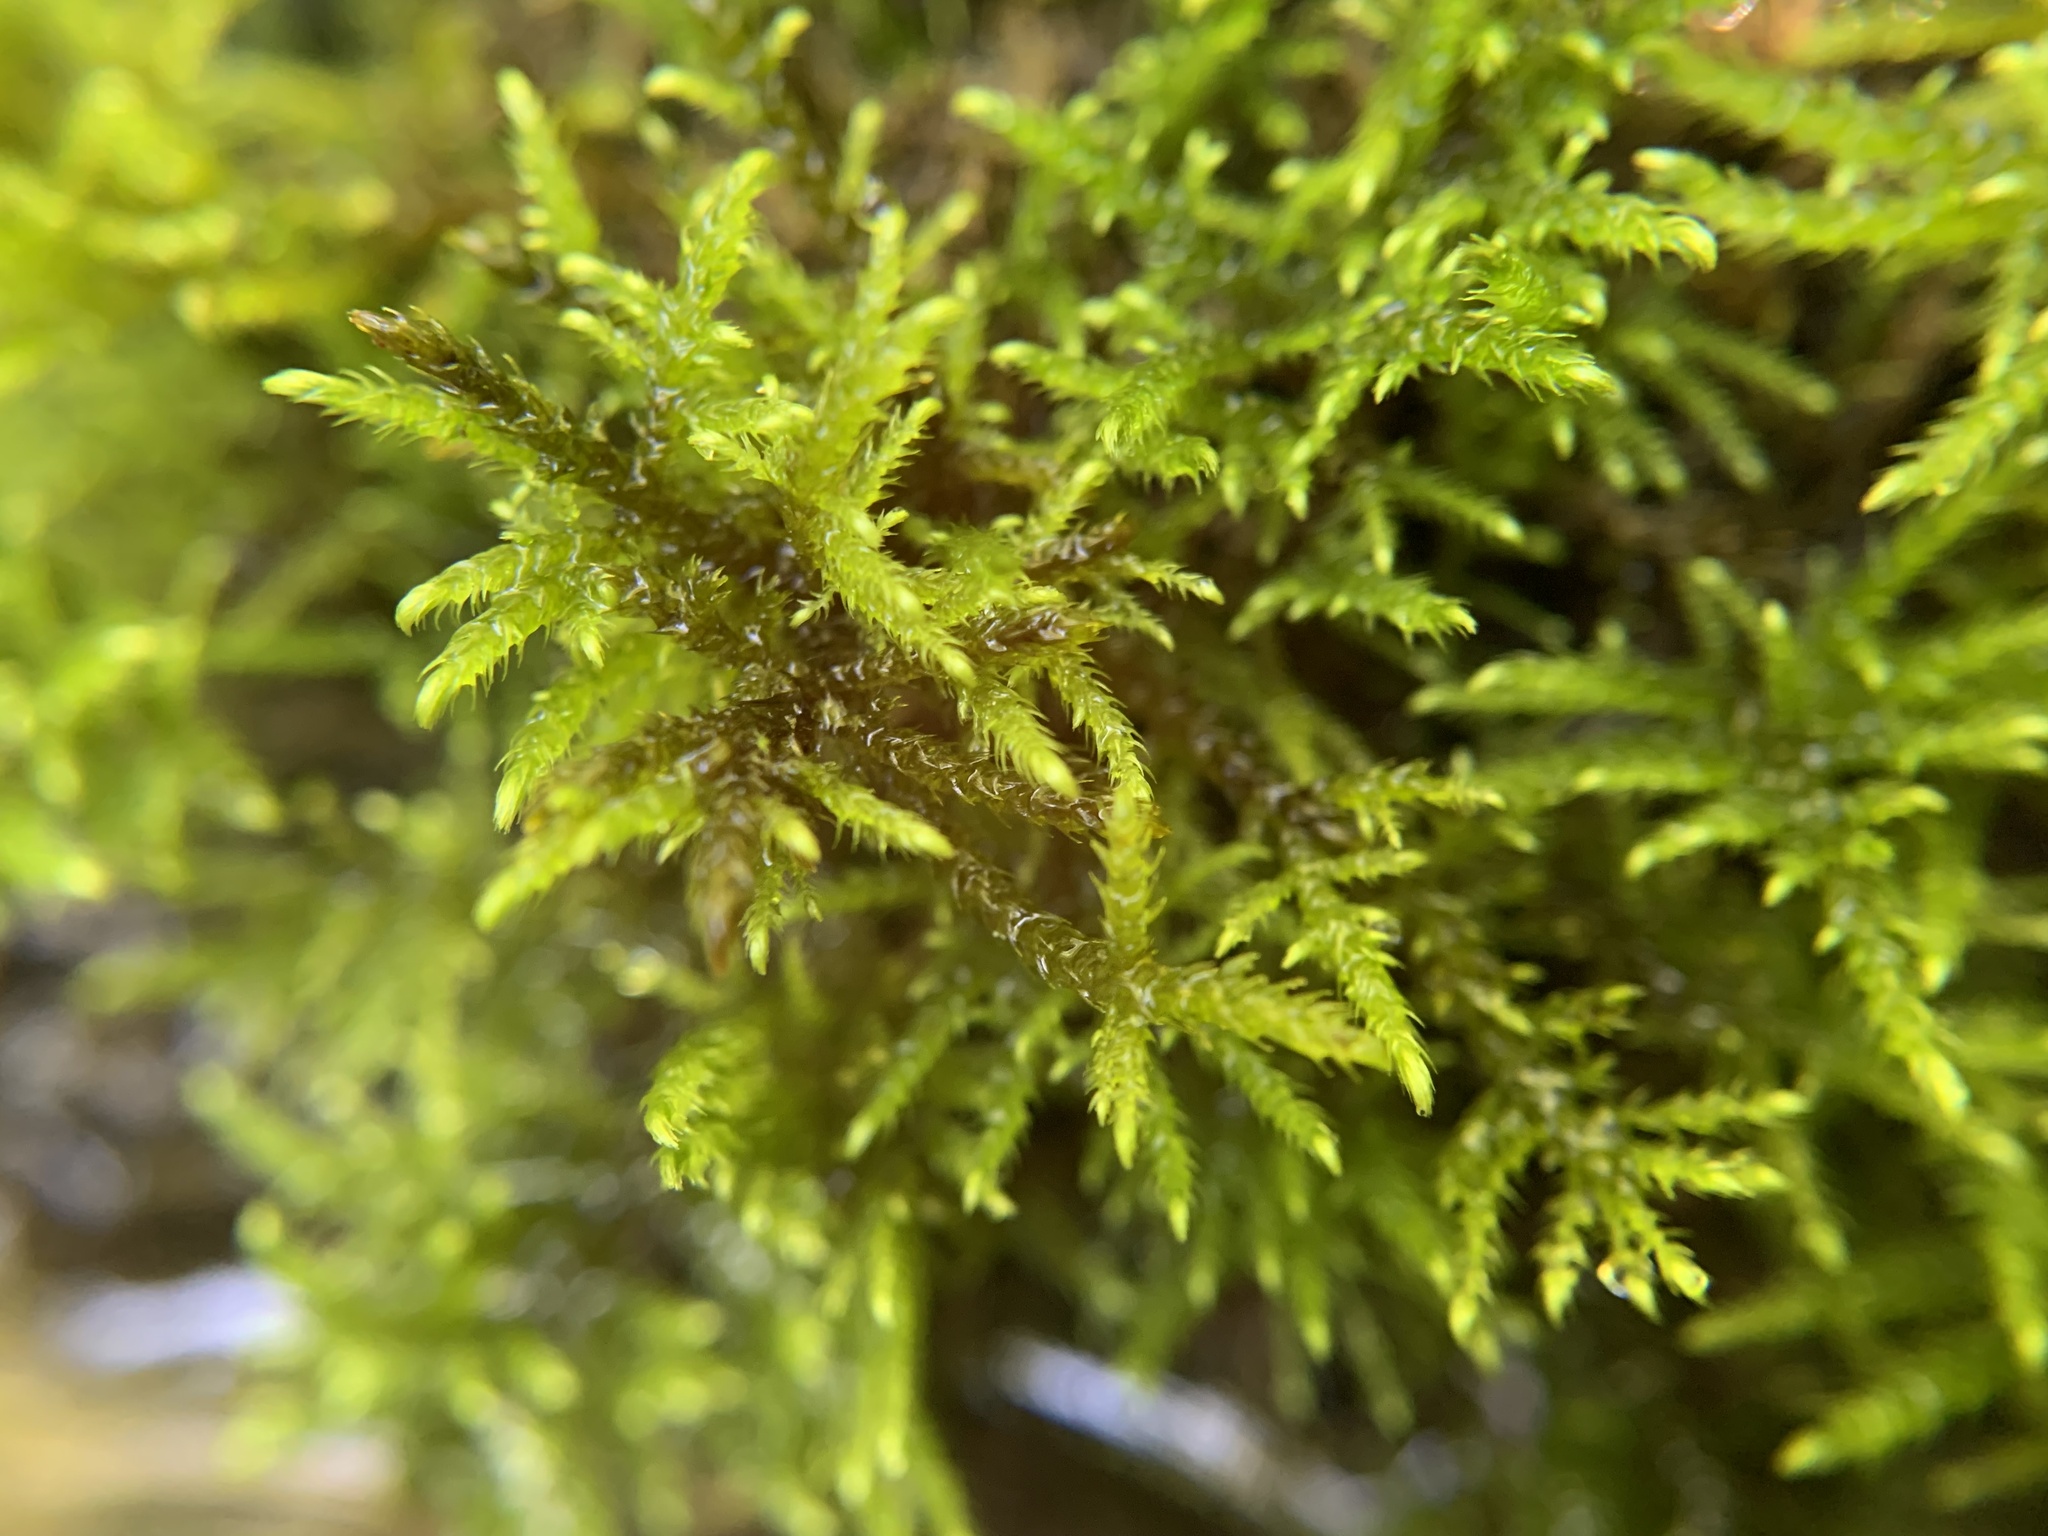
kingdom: Plantae
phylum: Bryophyta
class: Bryopsida
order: Hypnales
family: Amblystegiaceae
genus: Cratoneuron
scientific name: Cratoneuron filicinum
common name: Fern-leaved hook moss
